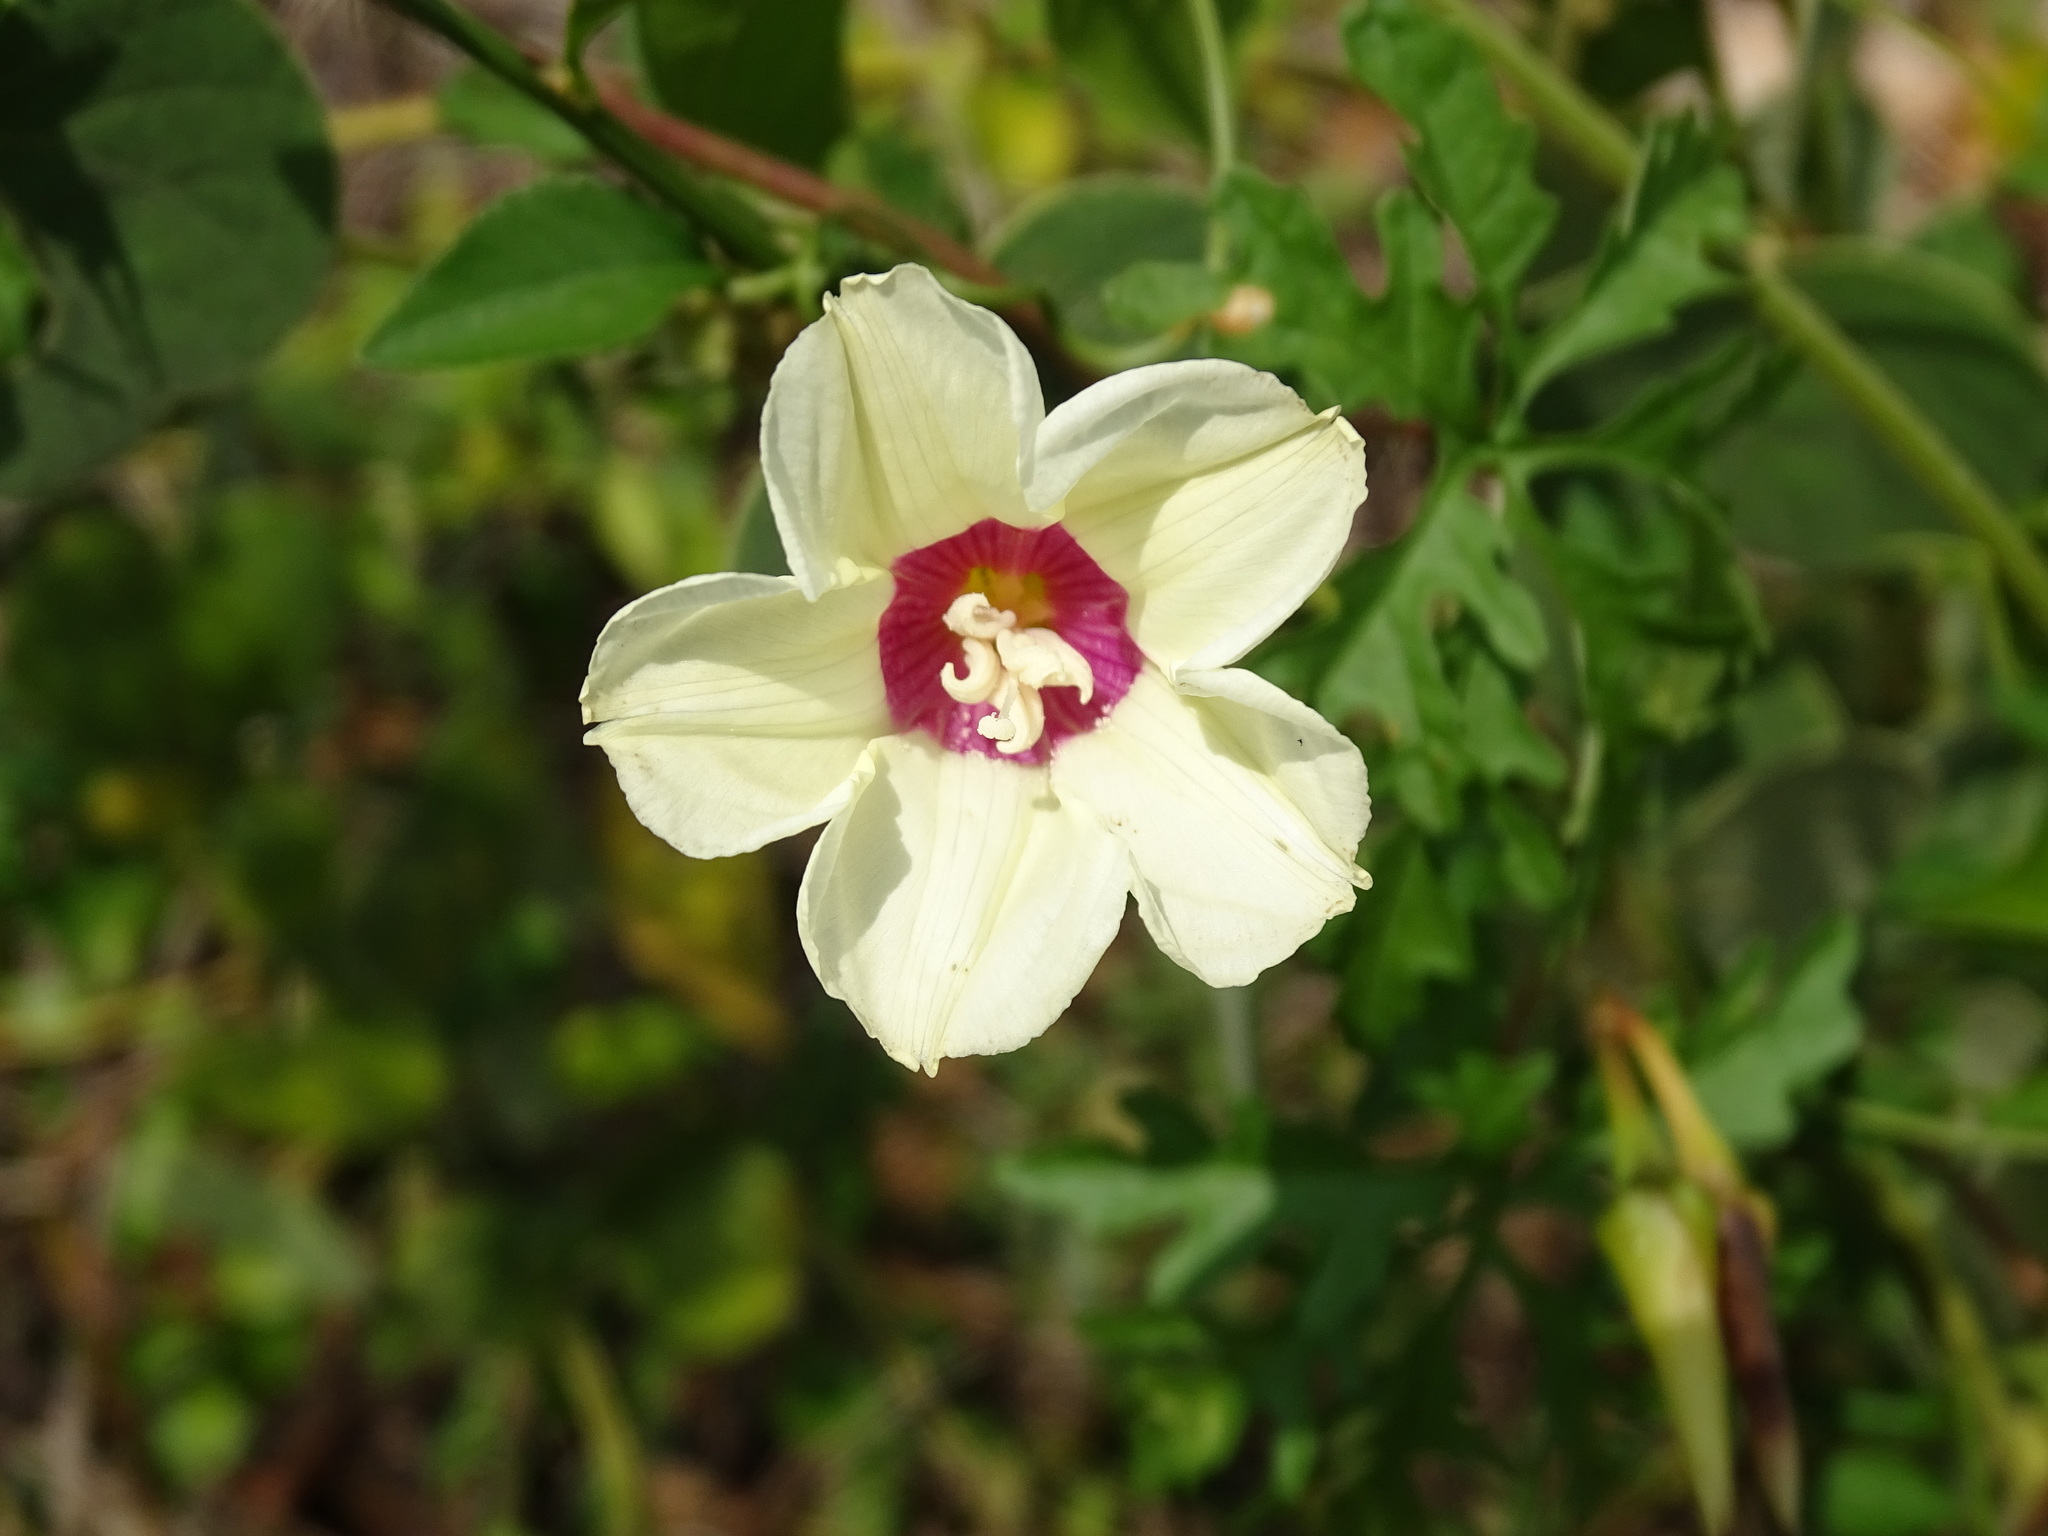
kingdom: Plantae
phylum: Tracheophyta
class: Magnoliopsida
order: Solanales
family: Convolvulaceae
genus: Distimake
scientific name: Distimake dissectus
